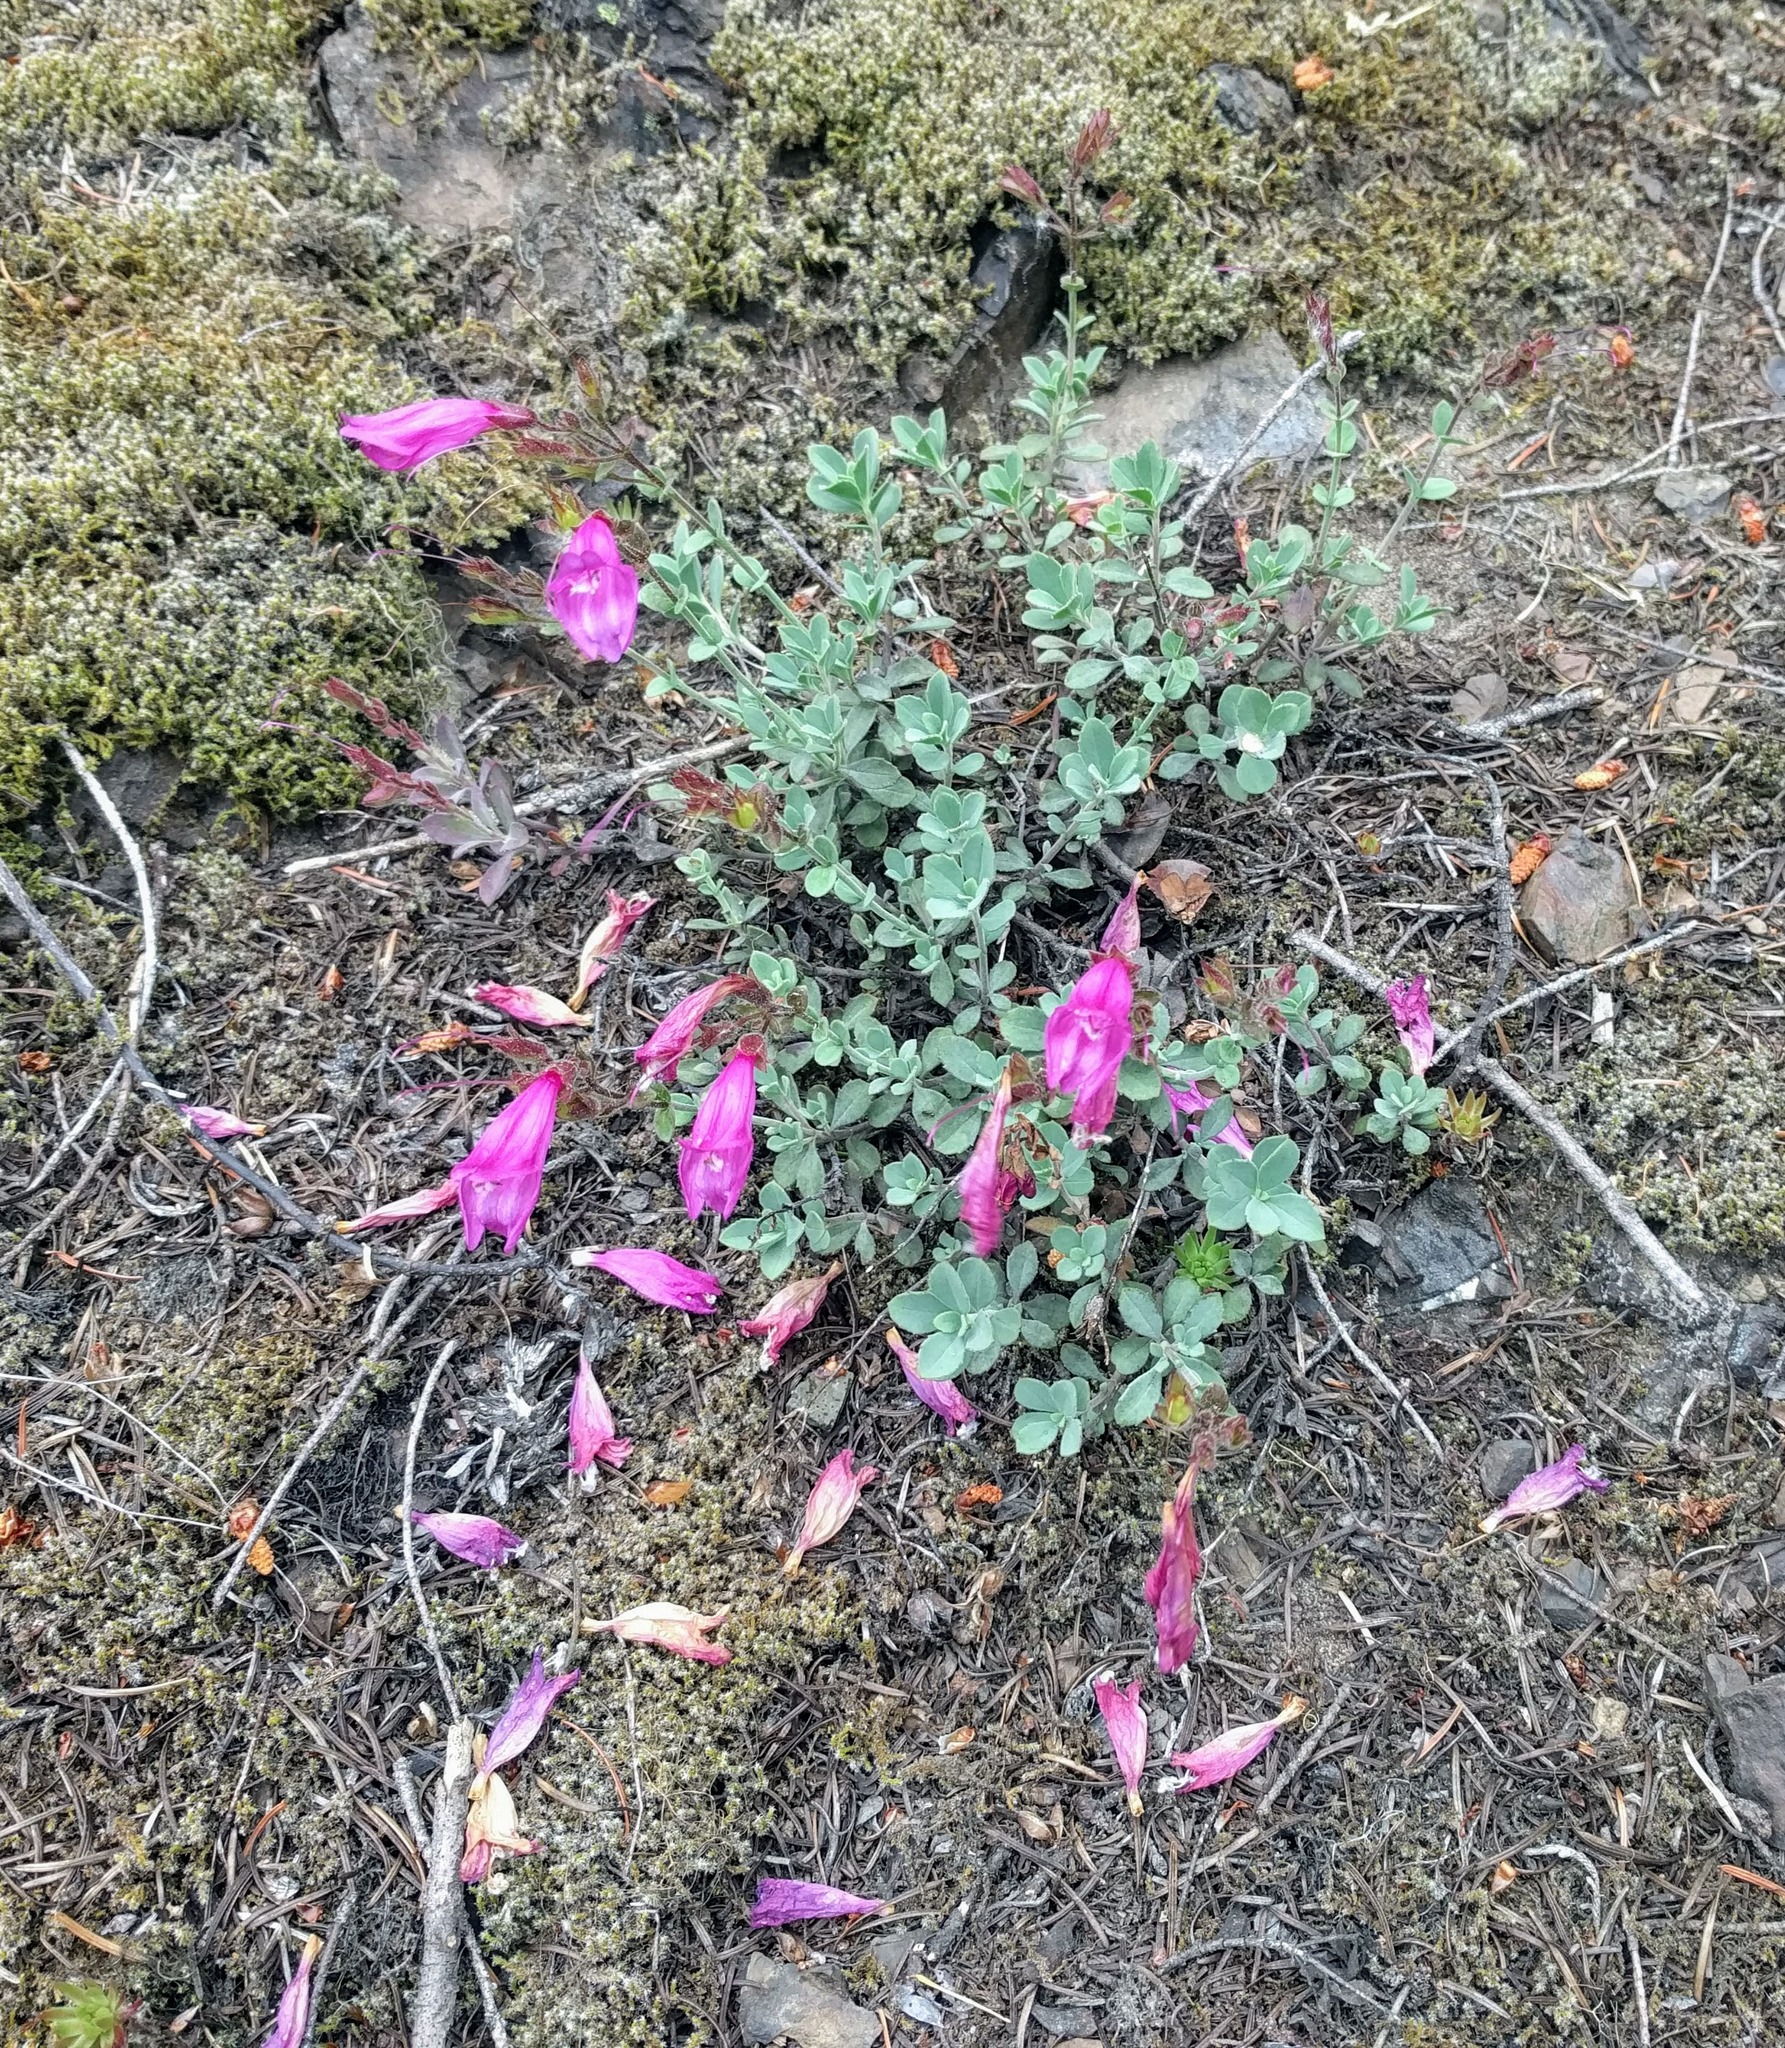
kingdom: Plantae
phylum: Tracheophyta
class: Magnoliopsida
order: Lamiales
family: Plantaginaceae
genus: Penstemon
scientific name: Penstemon rupicola
